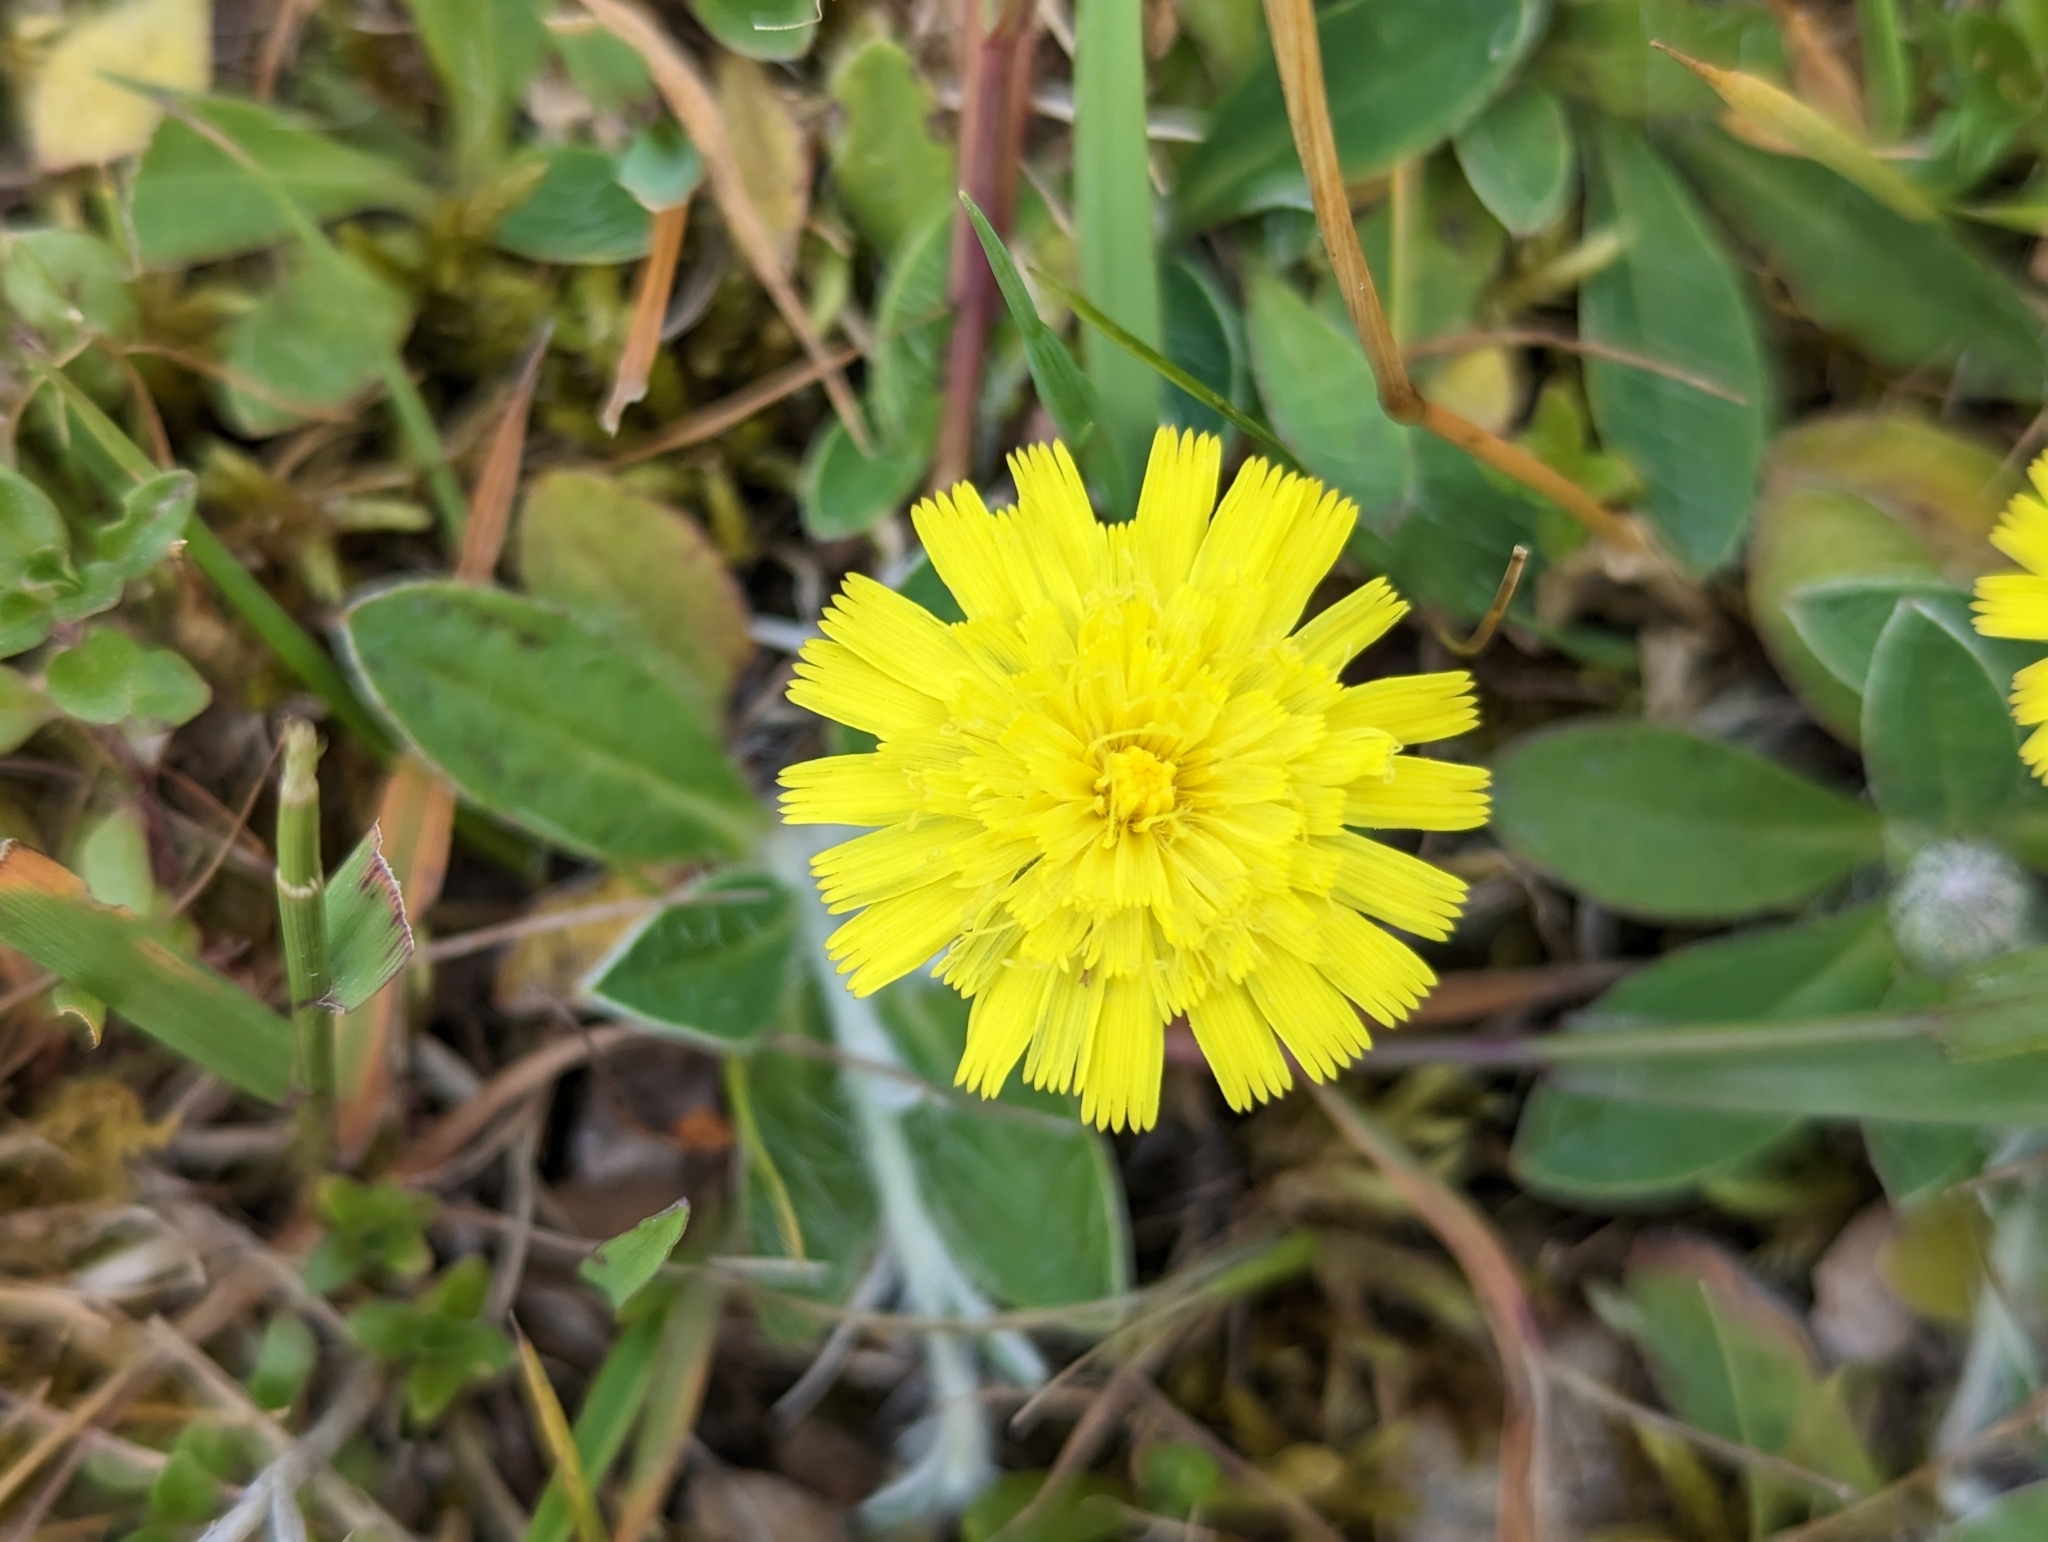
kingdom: Plantae
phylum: Tracheophyta
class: Magnoliopsida
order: Asterales
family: Asteraceae
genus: Pilosella
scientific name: Pilosella officinarum
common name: Mouse-ear hawkweed
